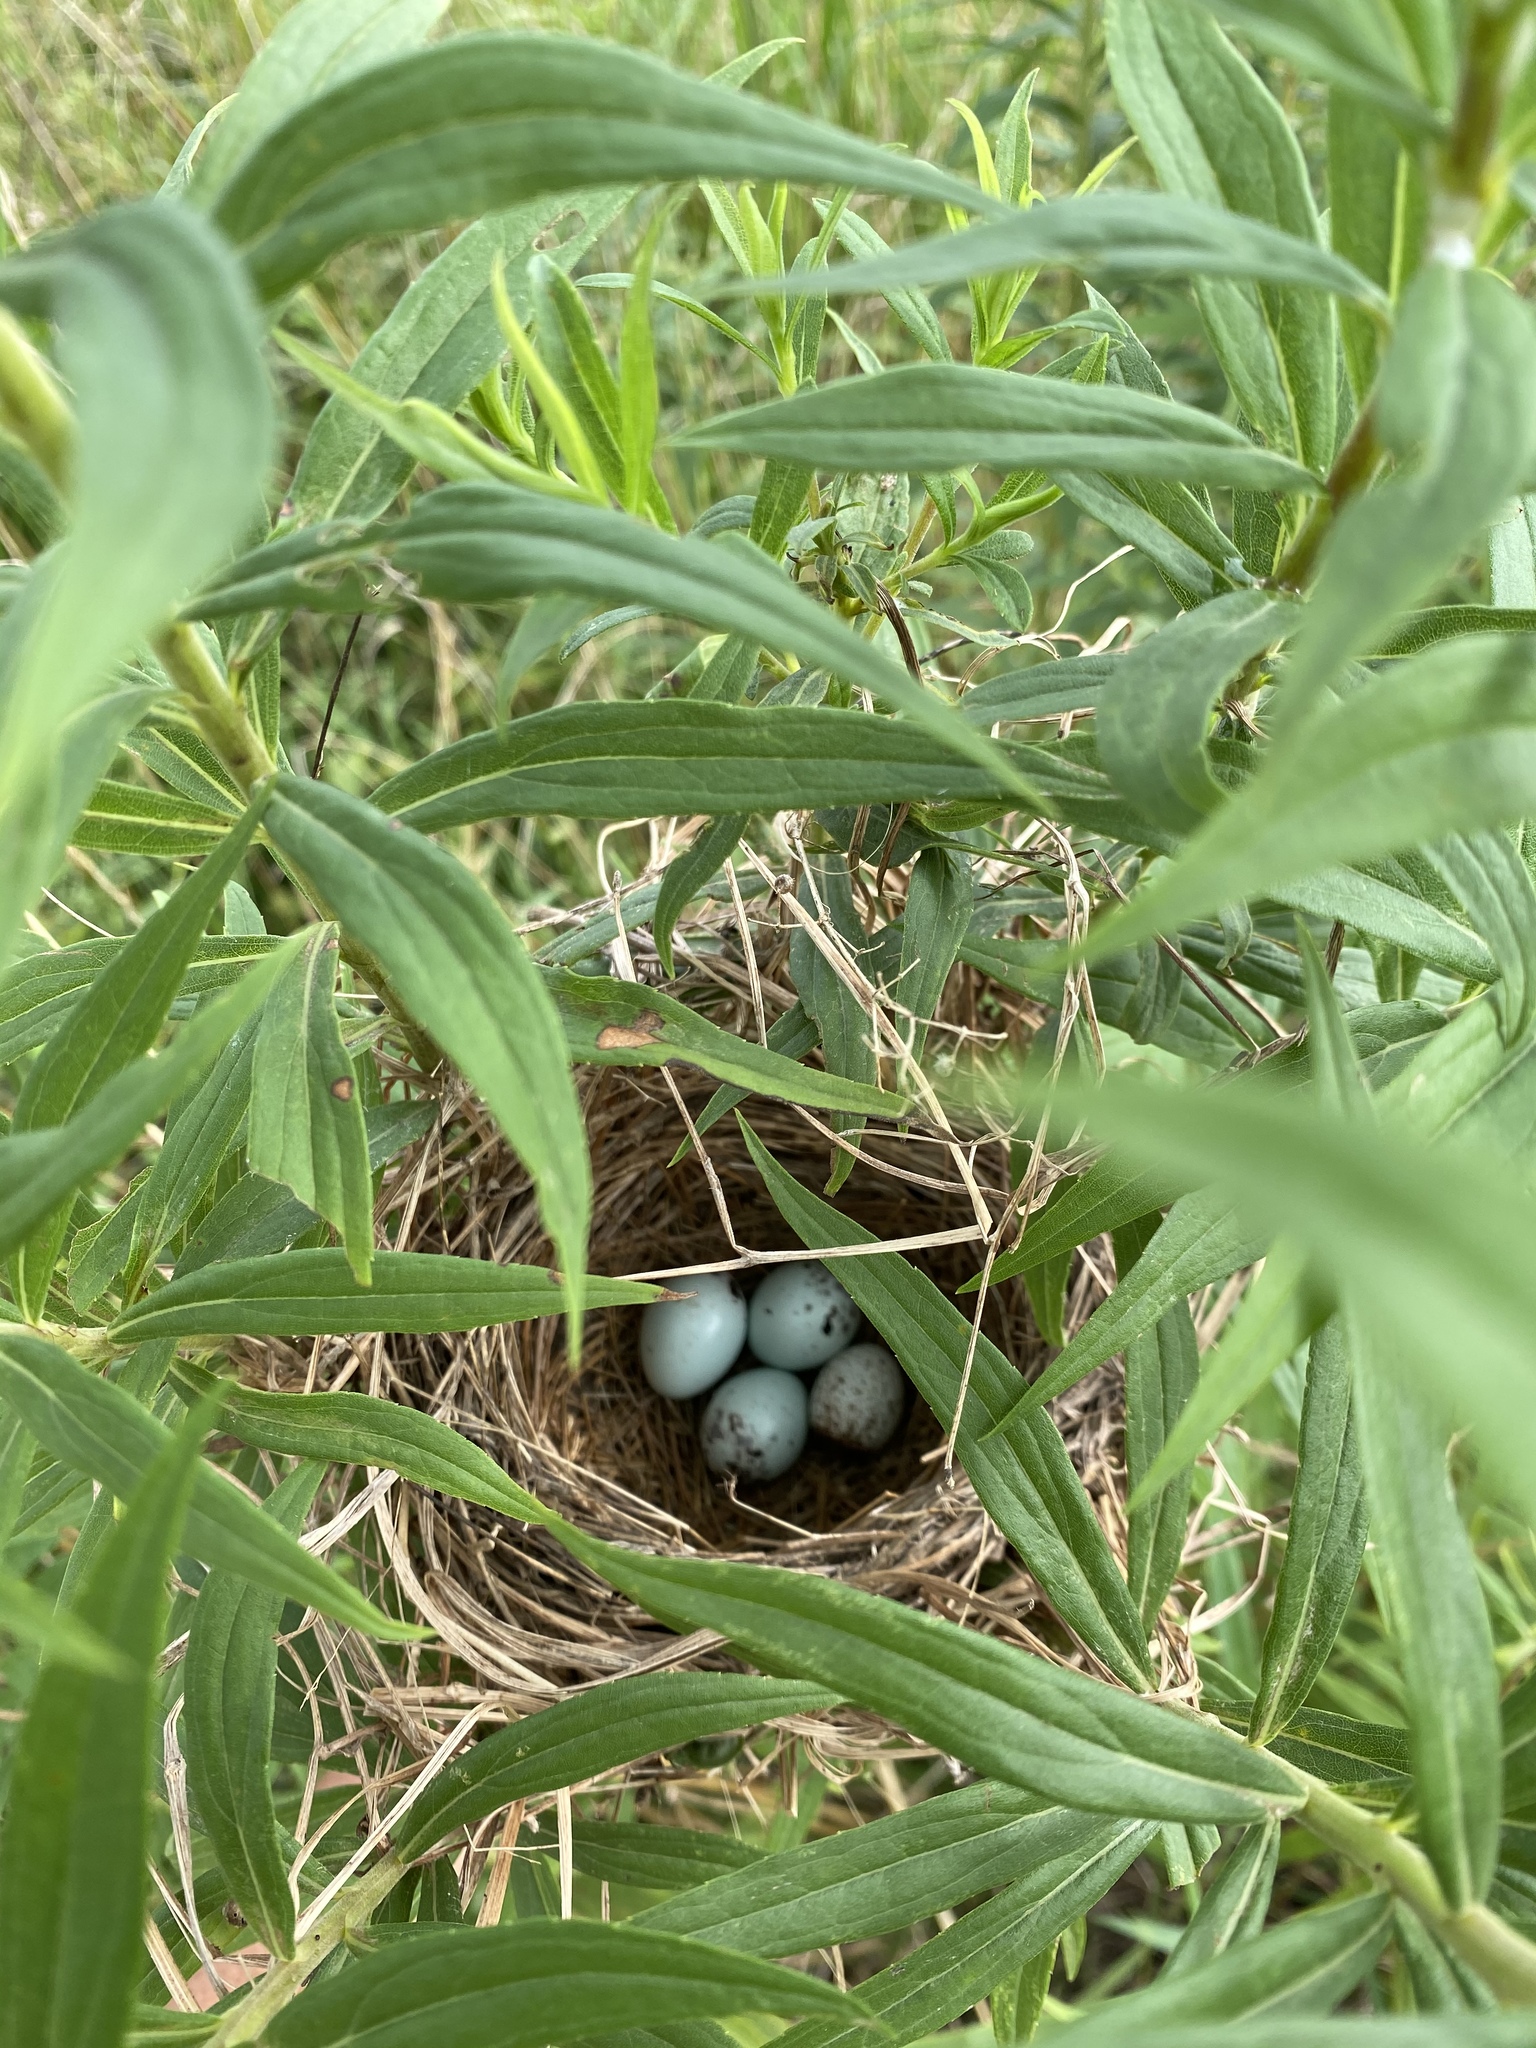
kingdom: Animalia
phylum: Chordata
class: Aves
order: Passeriformes
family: Icteridae
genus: Agelaius
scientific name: Agelaius phoeniceus
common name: Red-winged blackbird
